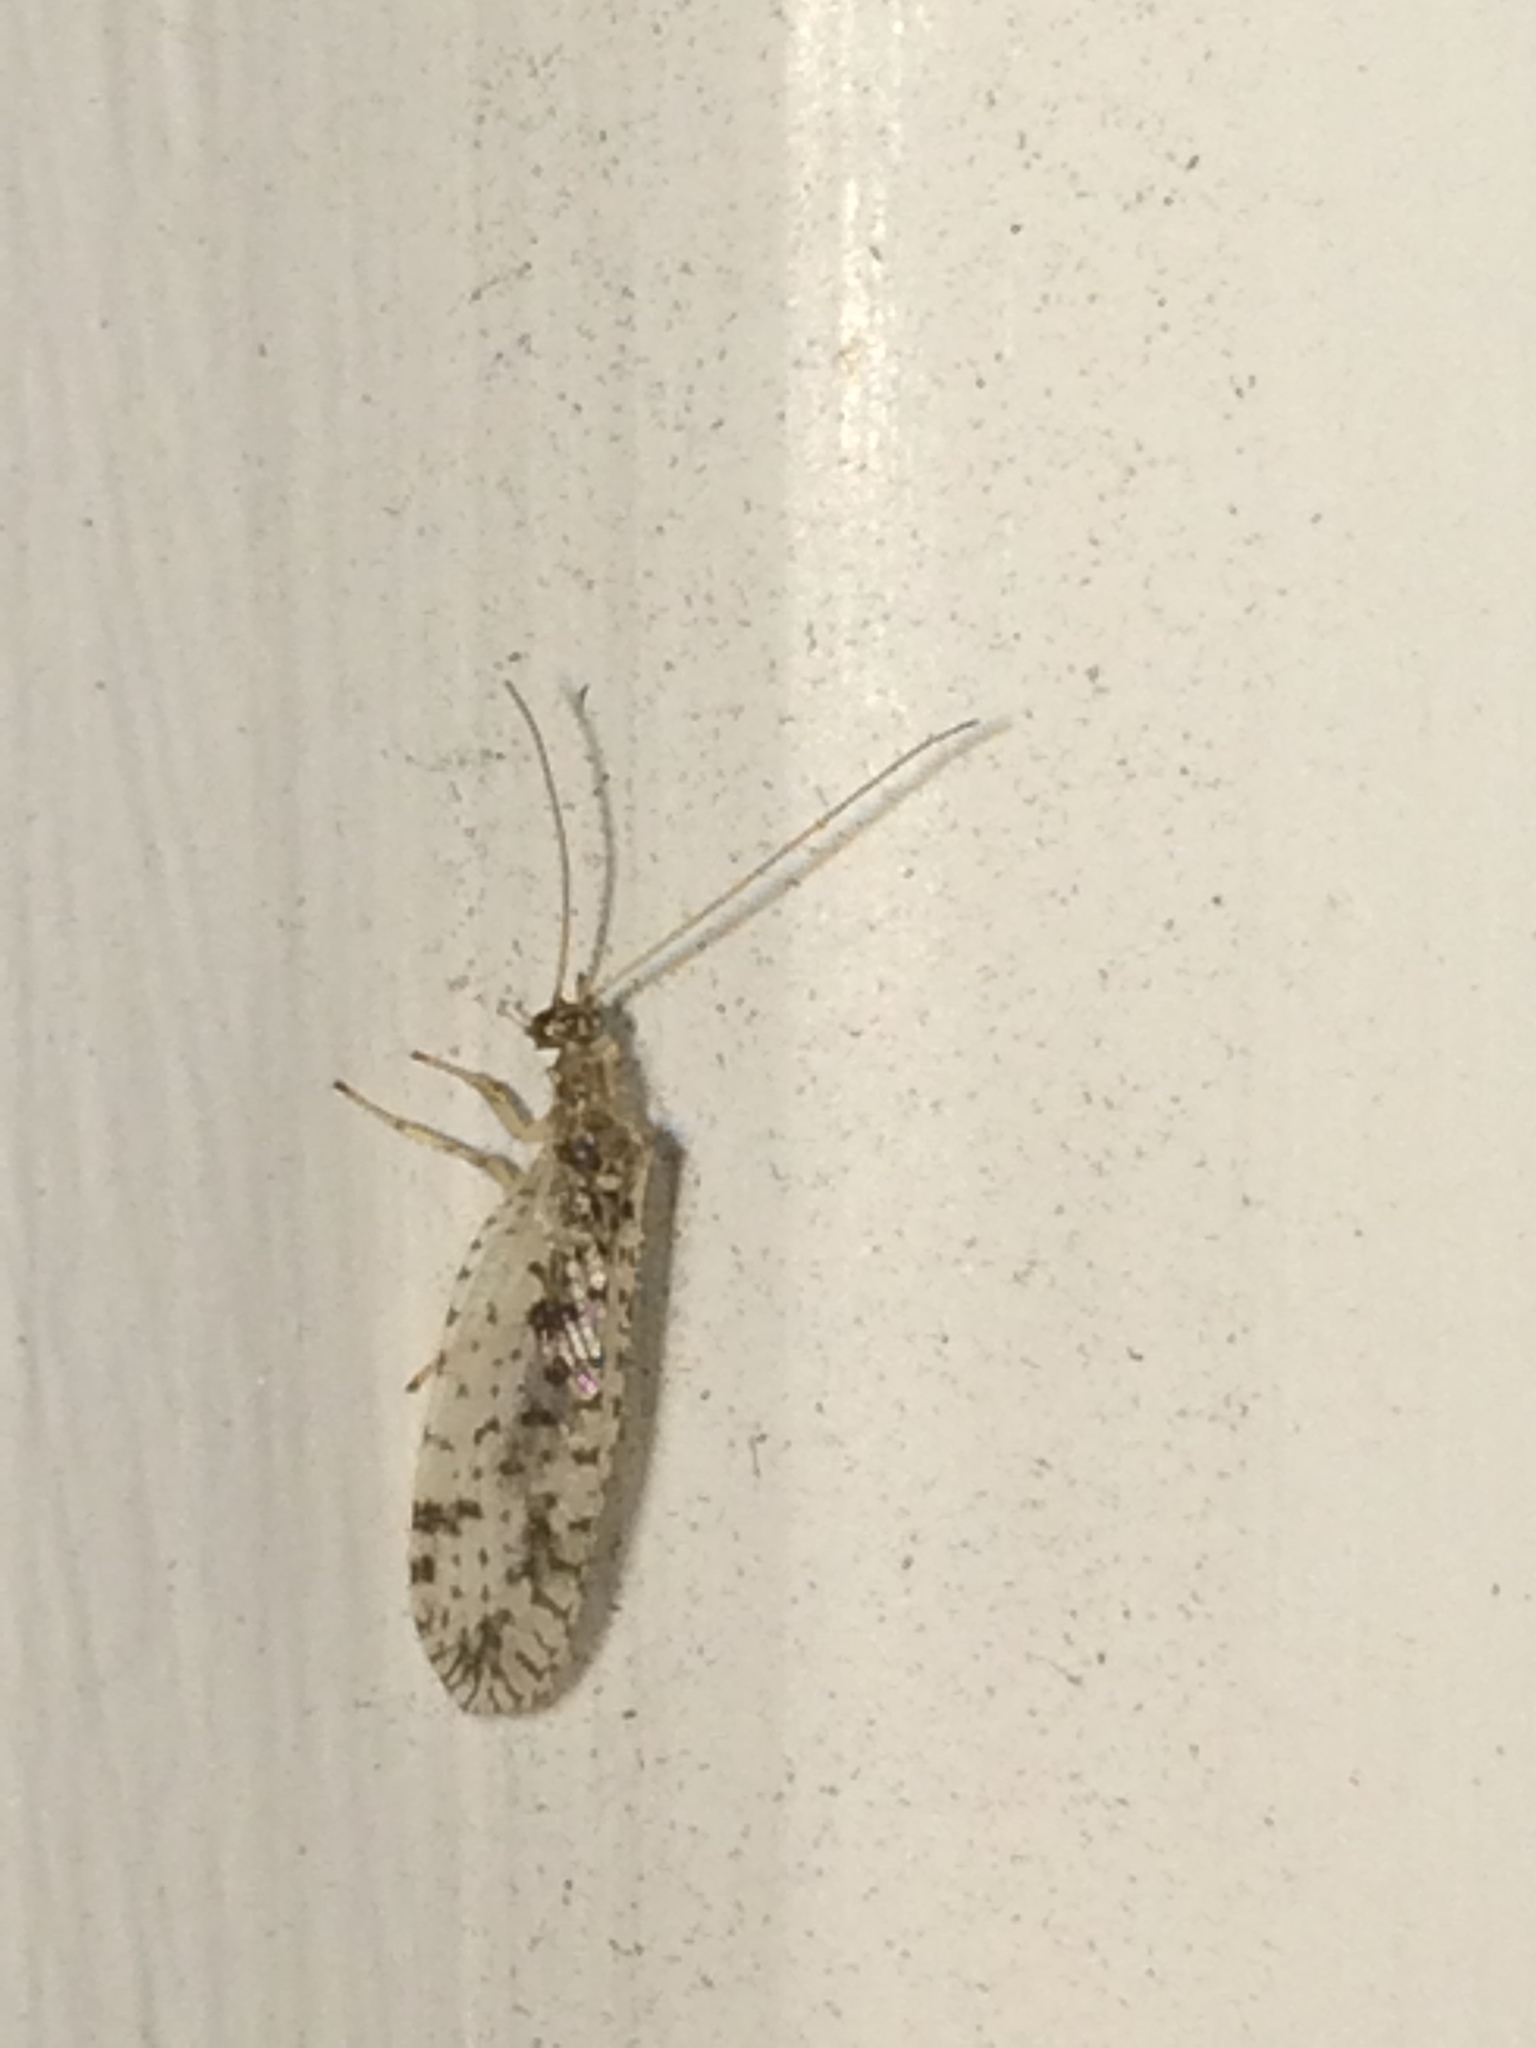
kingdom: Animalia
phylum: Arthropoda
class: Insecta
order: Neuroptera
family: Hemerobiidae
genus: Micromus
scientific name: Micromus variegatus
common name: Brown lacewing
